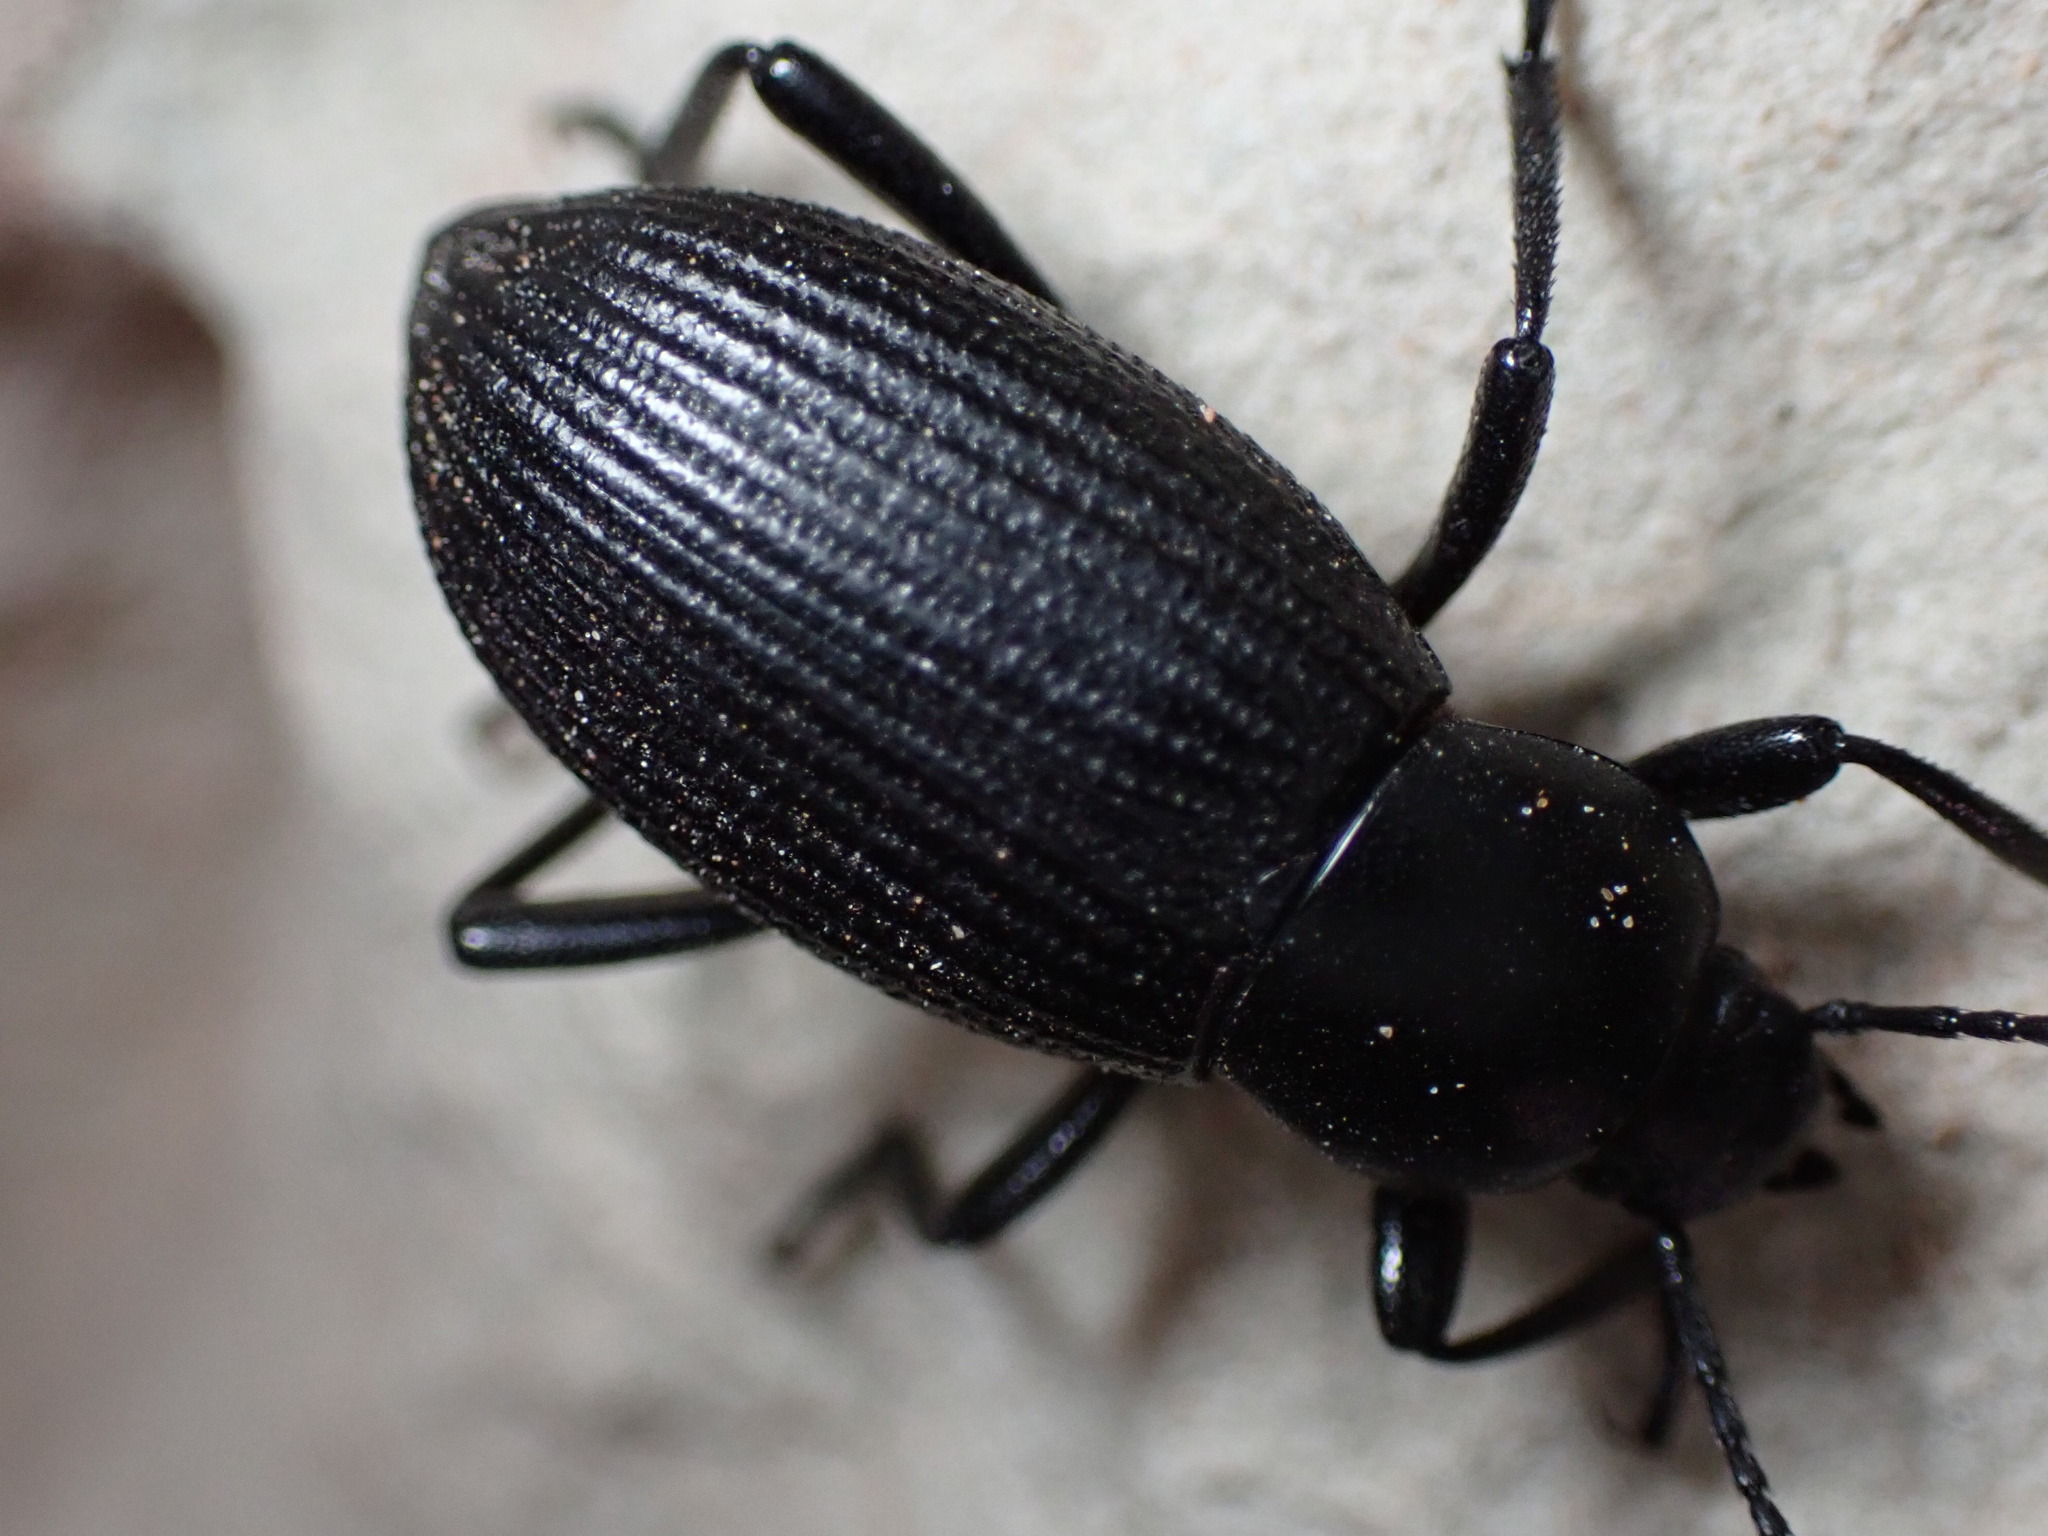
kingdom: Animalia
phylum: Arthropoda
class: Insecta
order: Coleoptera
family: Tenebrionidae
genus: Eleodes
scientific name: Eleodes carbonaria
